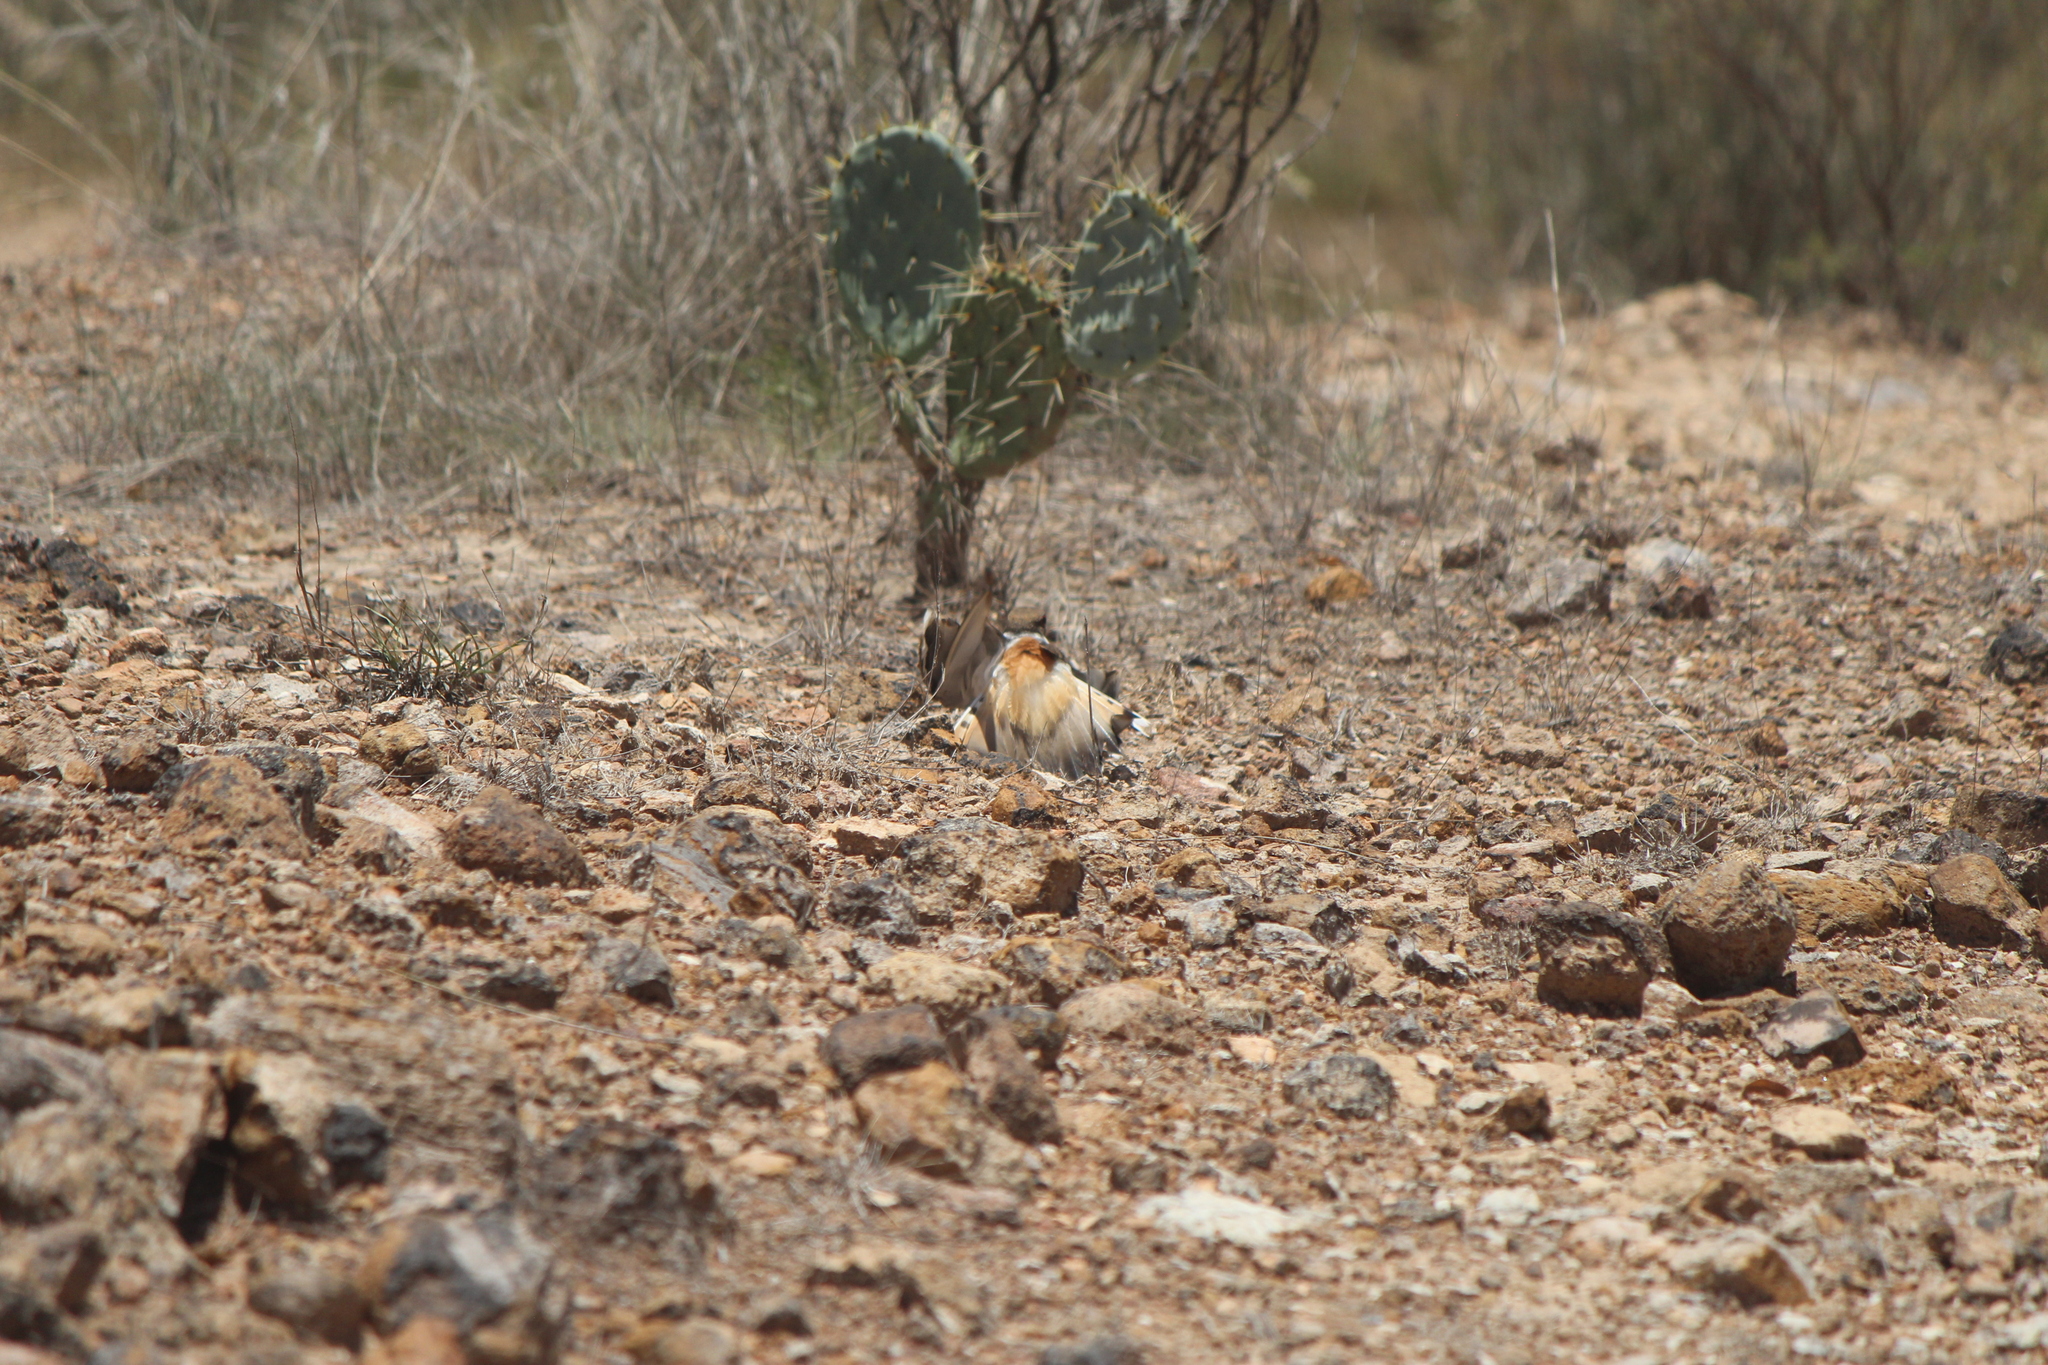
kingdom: Animalia
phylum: Chordata
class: Aves
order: Charadriiformes
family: Charadriidae
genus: Charadrius
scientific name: Charadrius vociferus
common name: Killdeer
